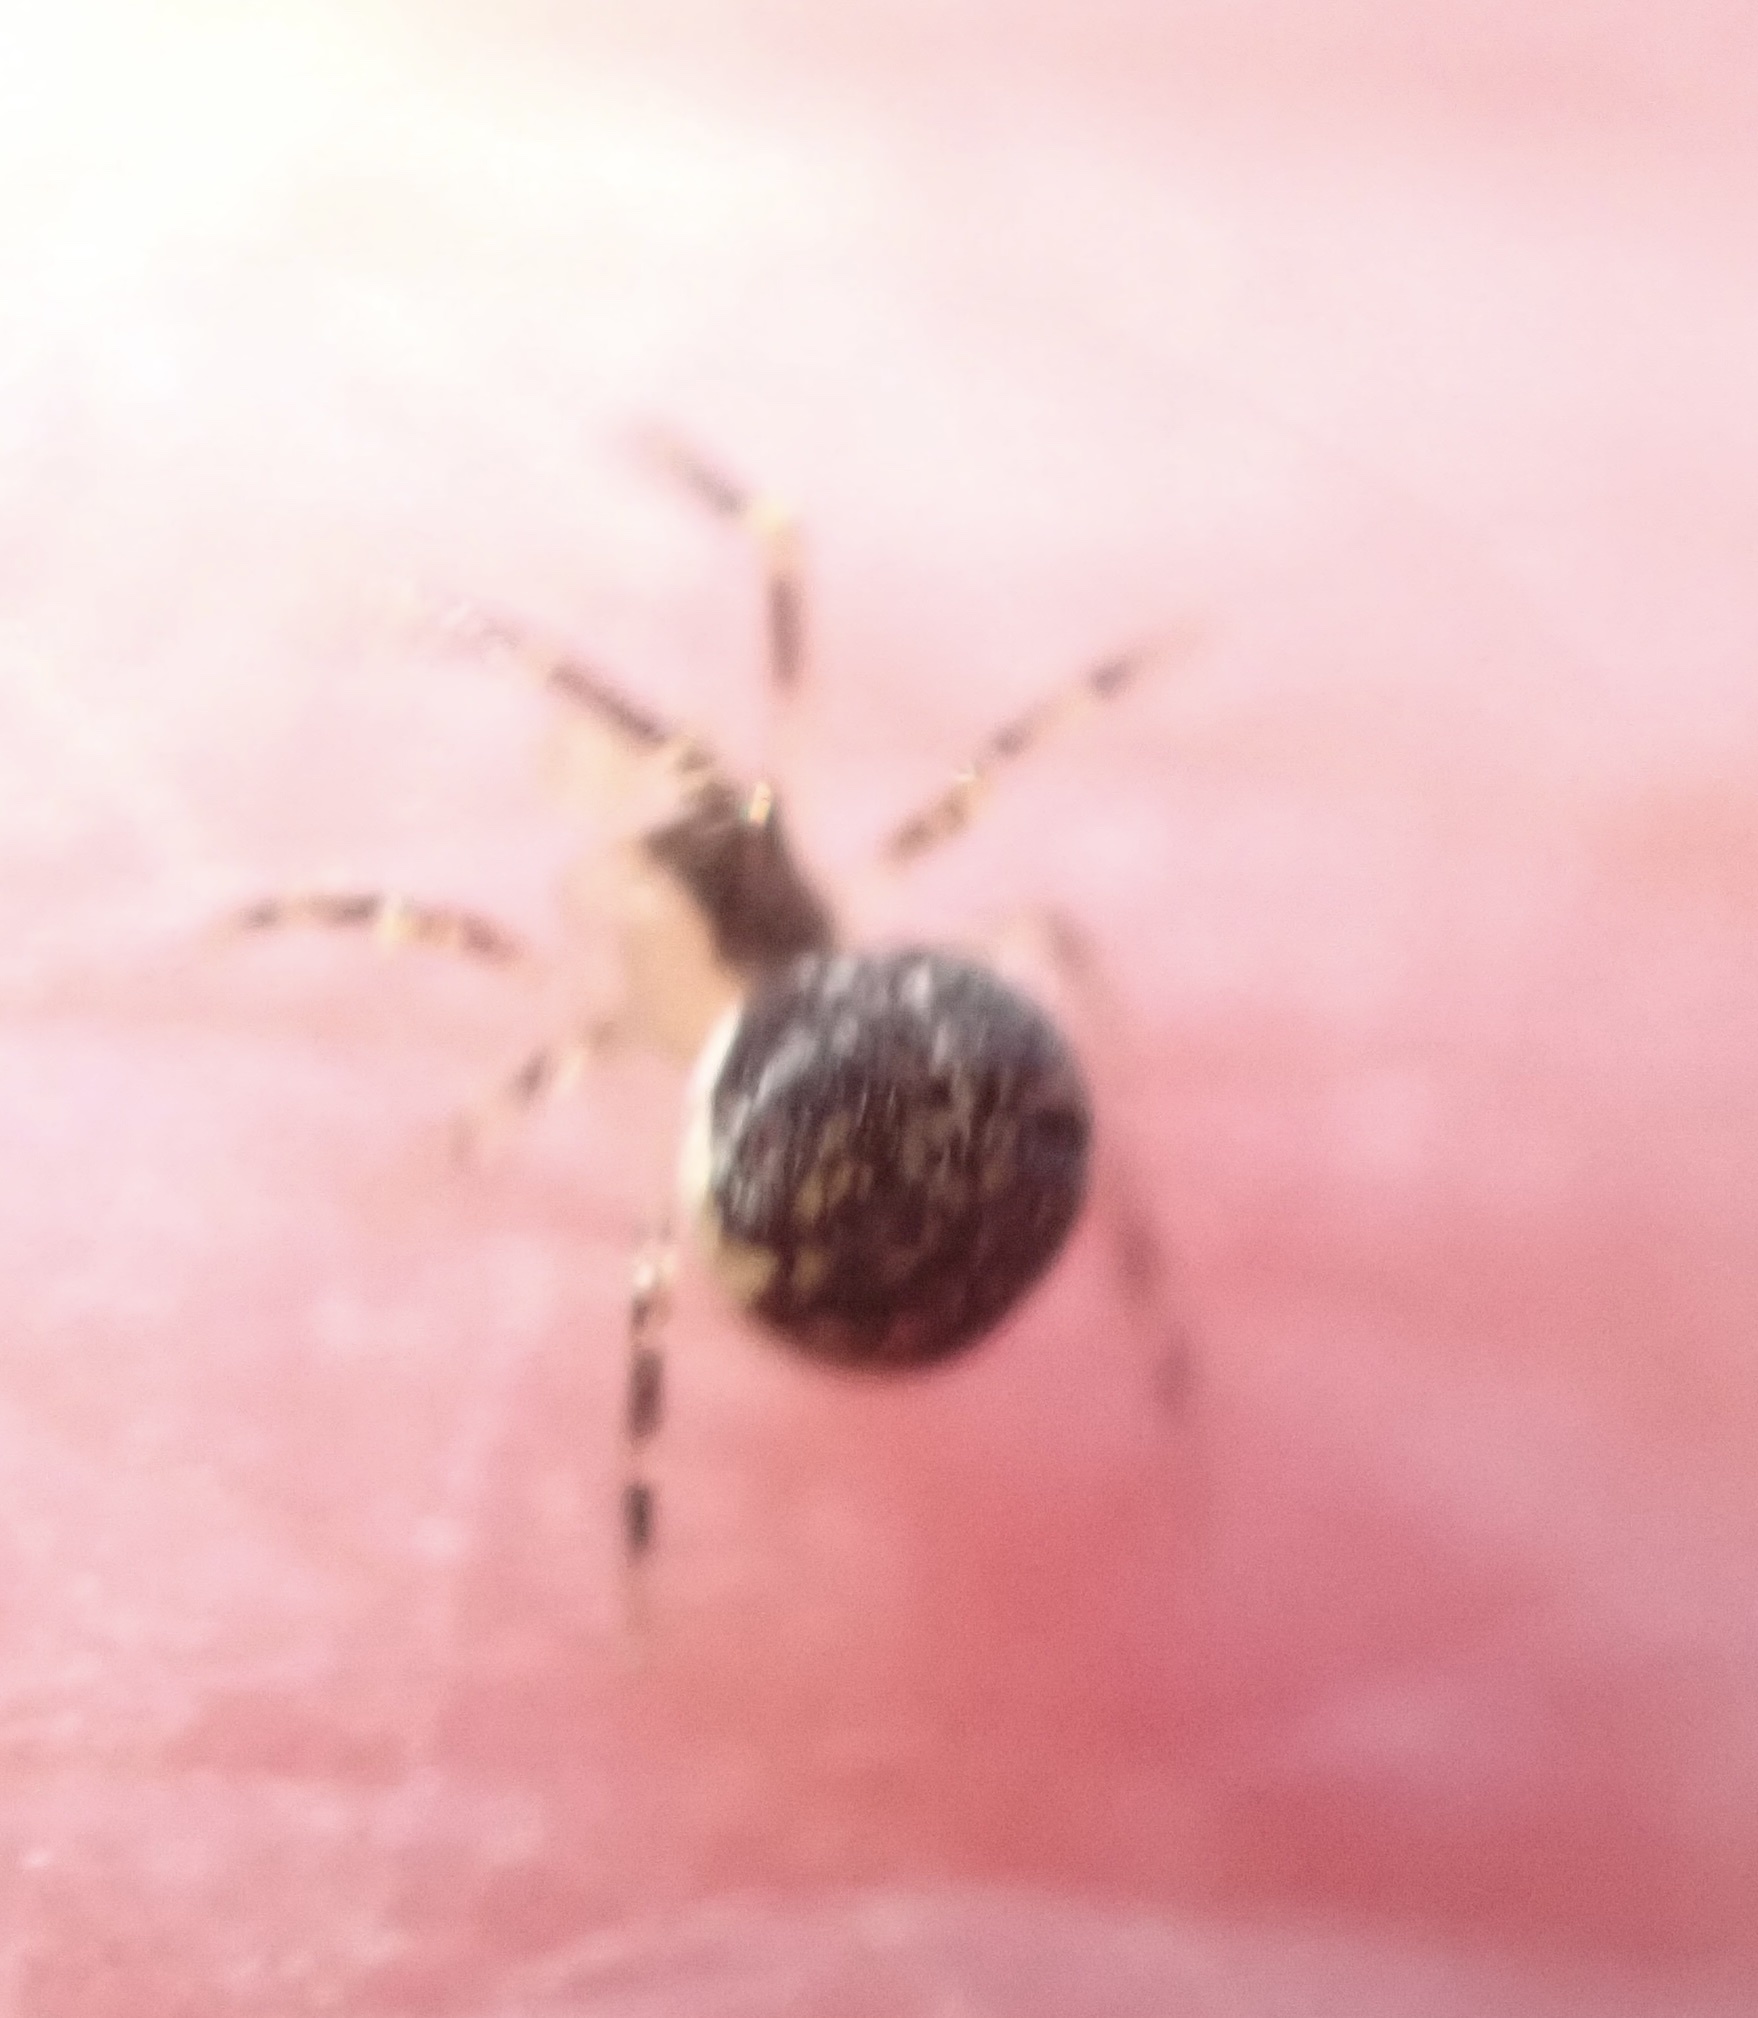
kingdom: Animalia
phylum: Arthropoda
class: Arachnida
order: Araneae
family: Theridiidae
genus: Theridion
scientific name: Theridion varians
